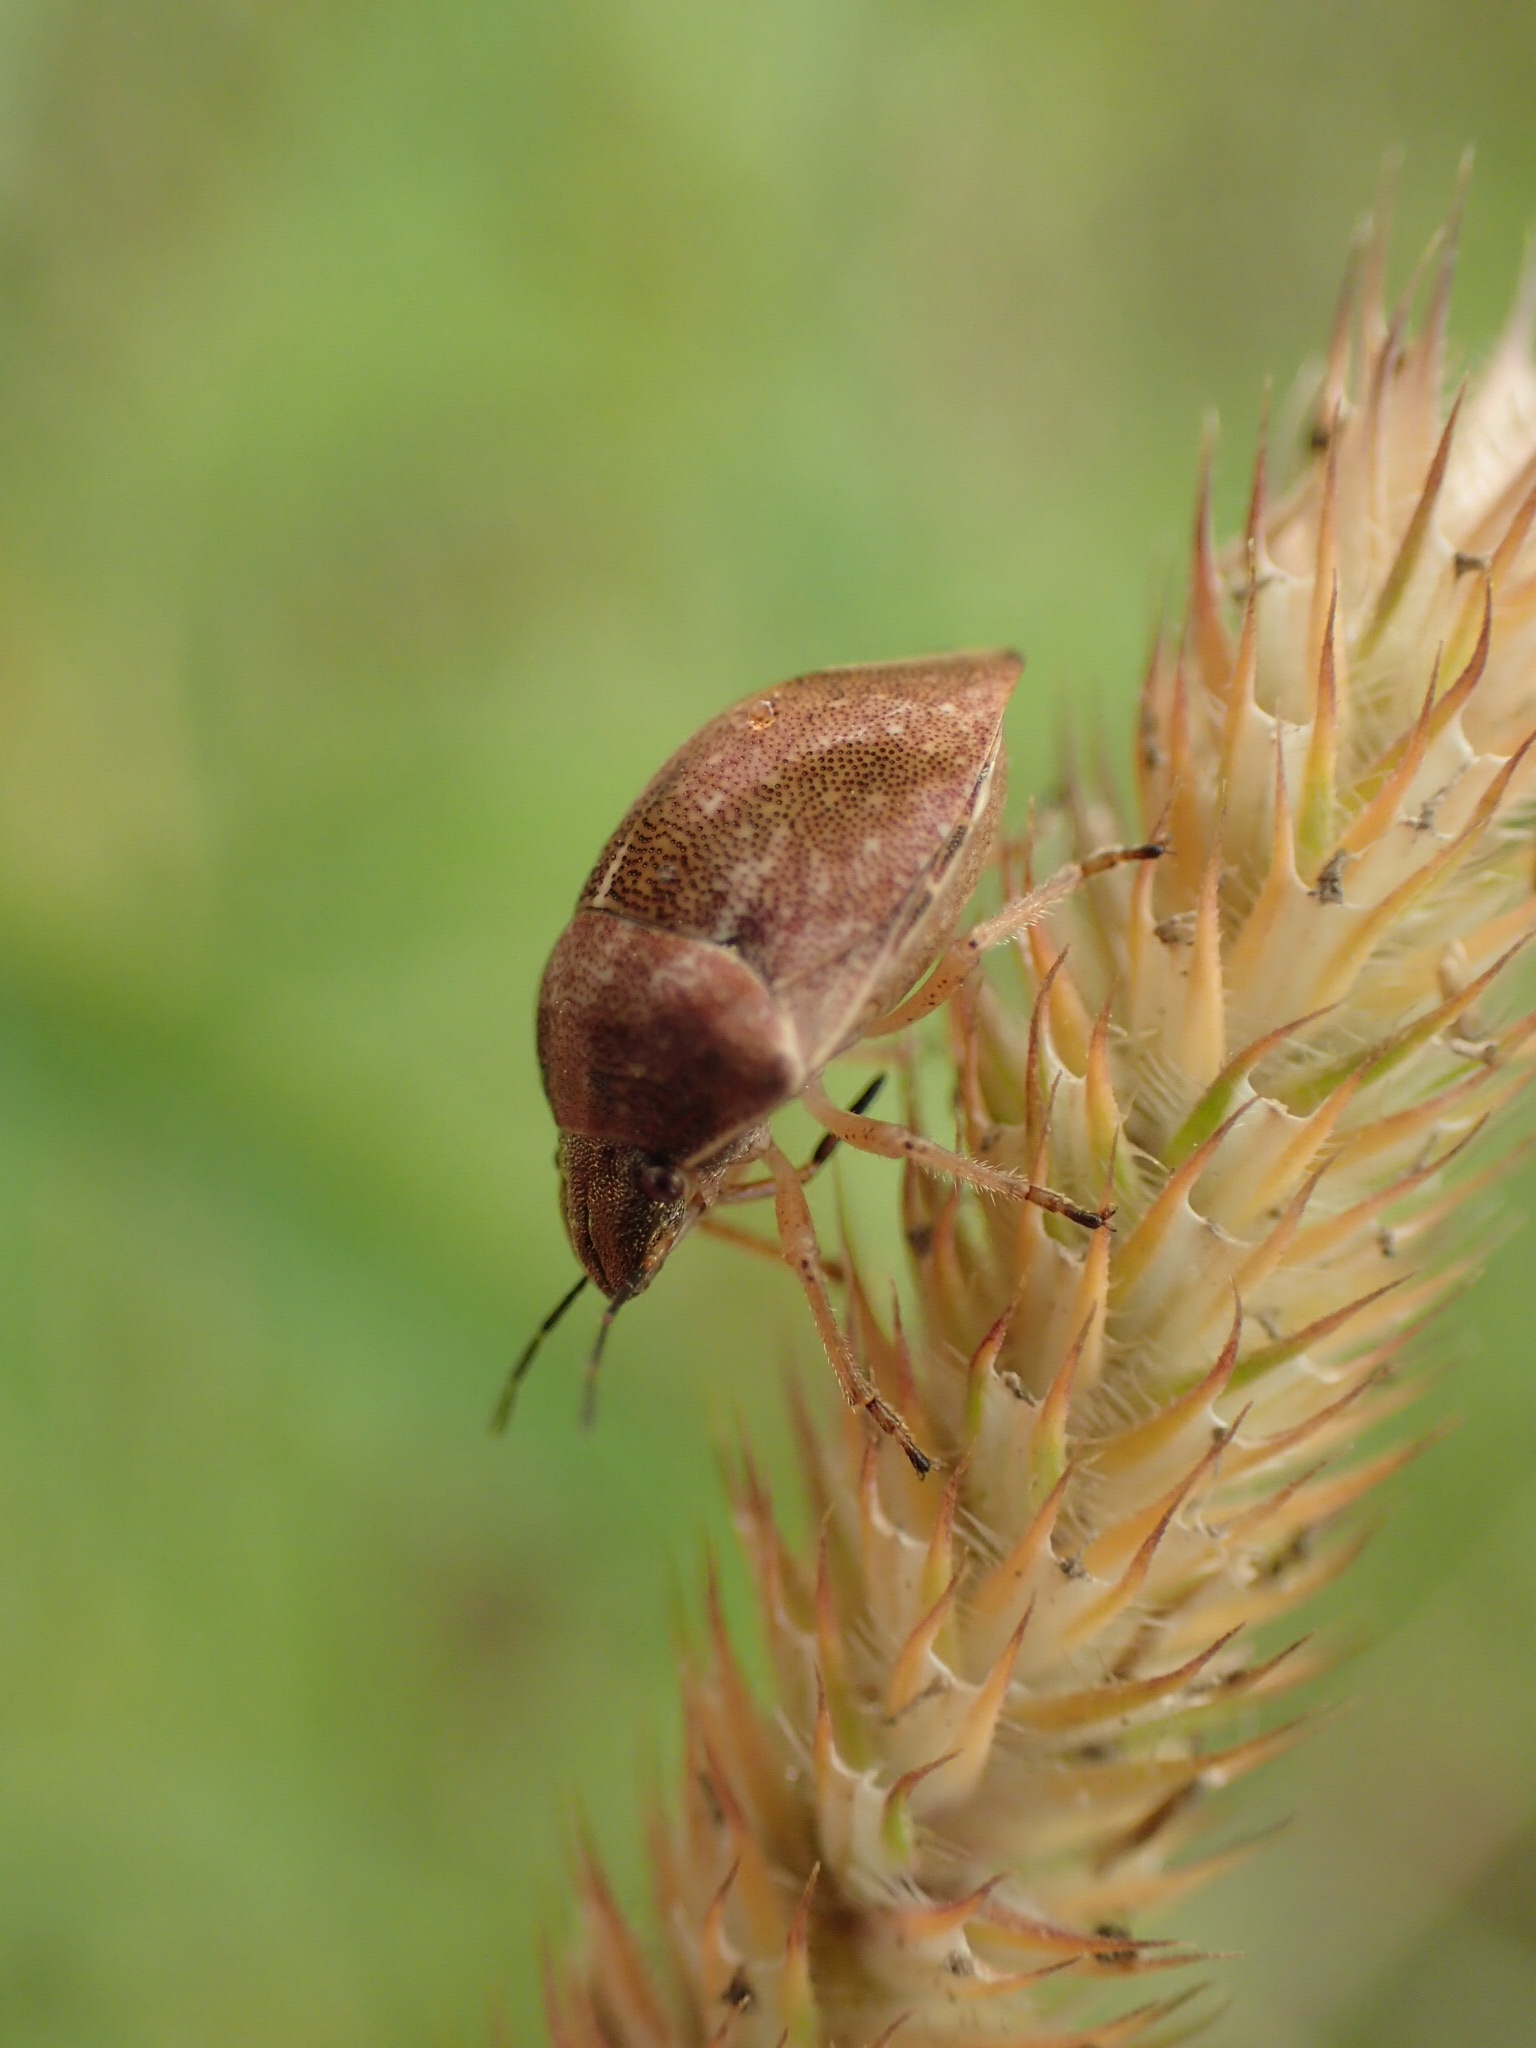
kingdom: Animalia
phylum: Arthropoda
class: Insecta
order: Hemiptera
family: Scutelleridae
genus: Homaemus
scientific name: Homaemus aeneifrons
